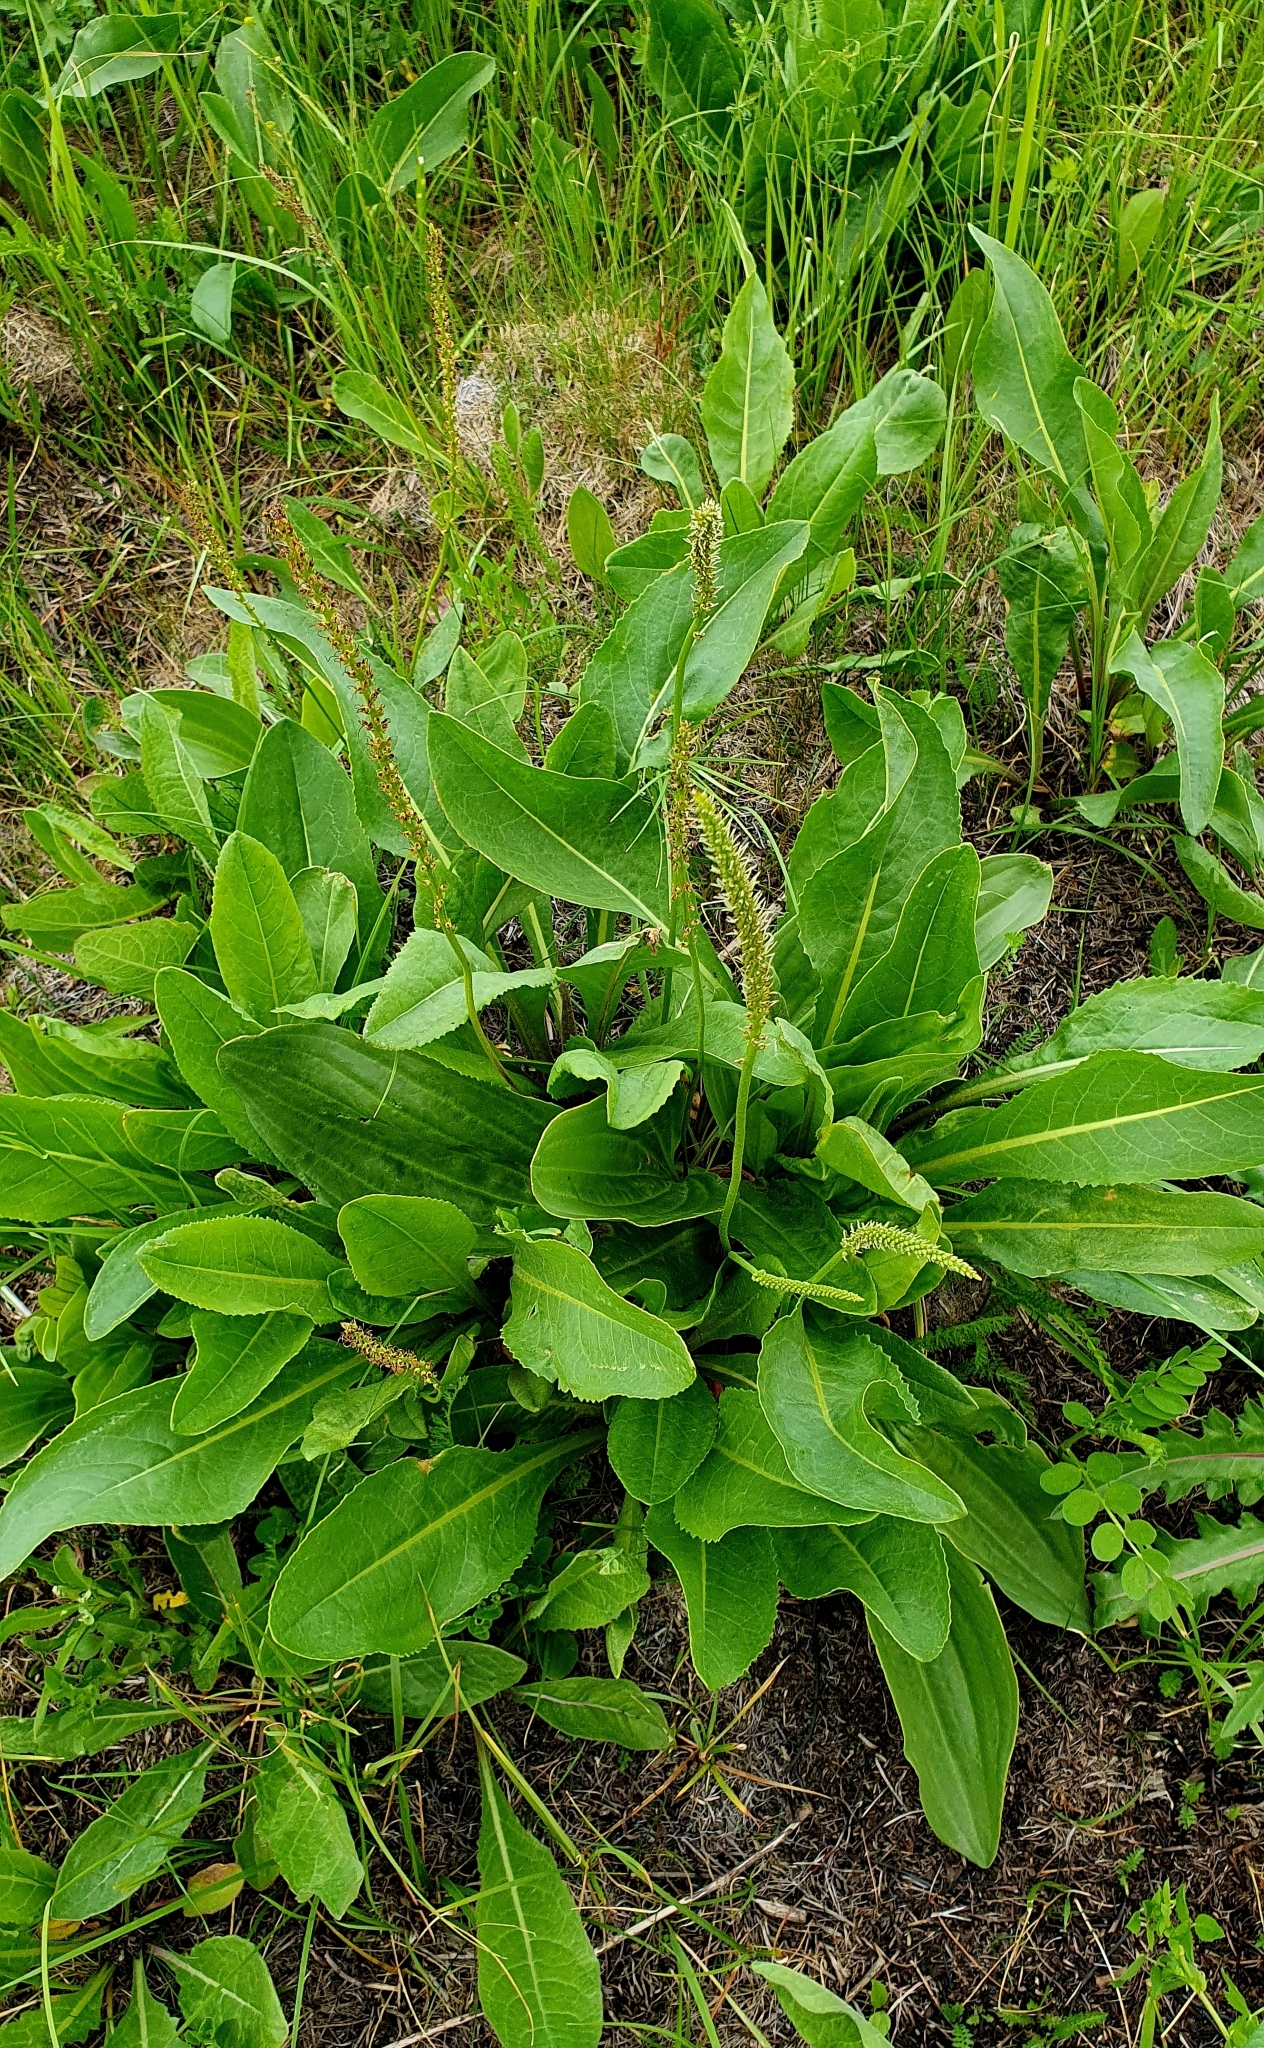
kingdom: Plantae
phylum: Tracheophyta
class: Magnoliopsida
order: Lamiales
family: Plantaginaceae
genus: Plantago
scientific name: Plantago cornuti
